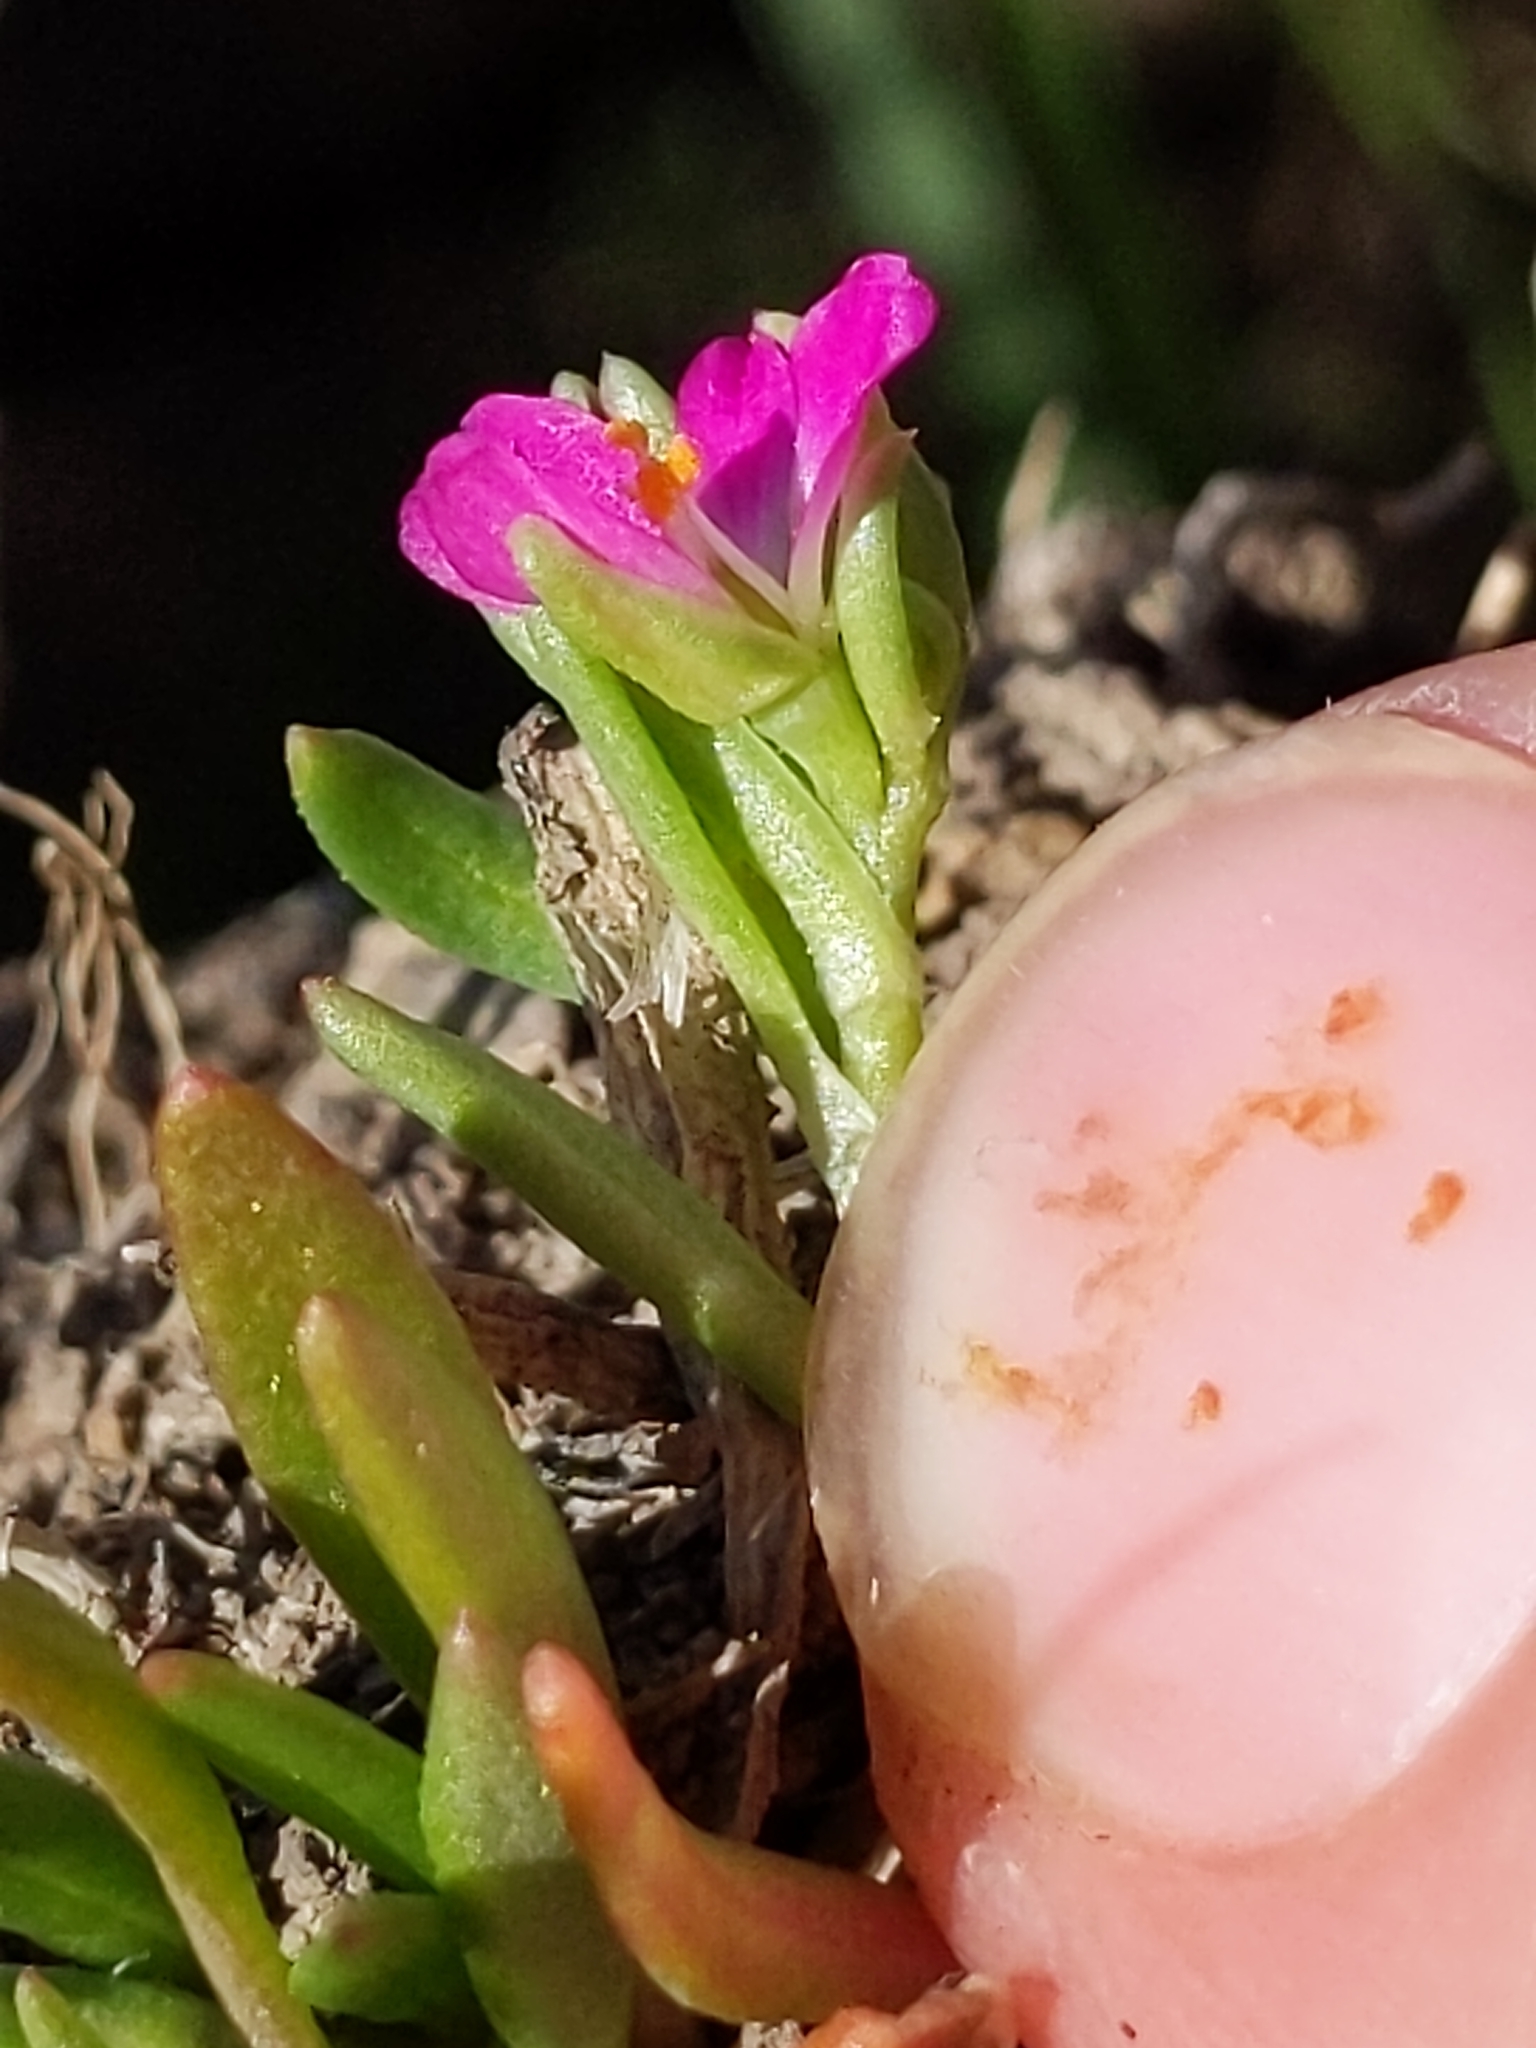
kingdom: Plantae
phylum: Tracheophyta
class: Magnoliopsida
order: Caryophyllales
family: Montiaceae
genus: Calandrinia
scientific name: Calandrinia menziesii
